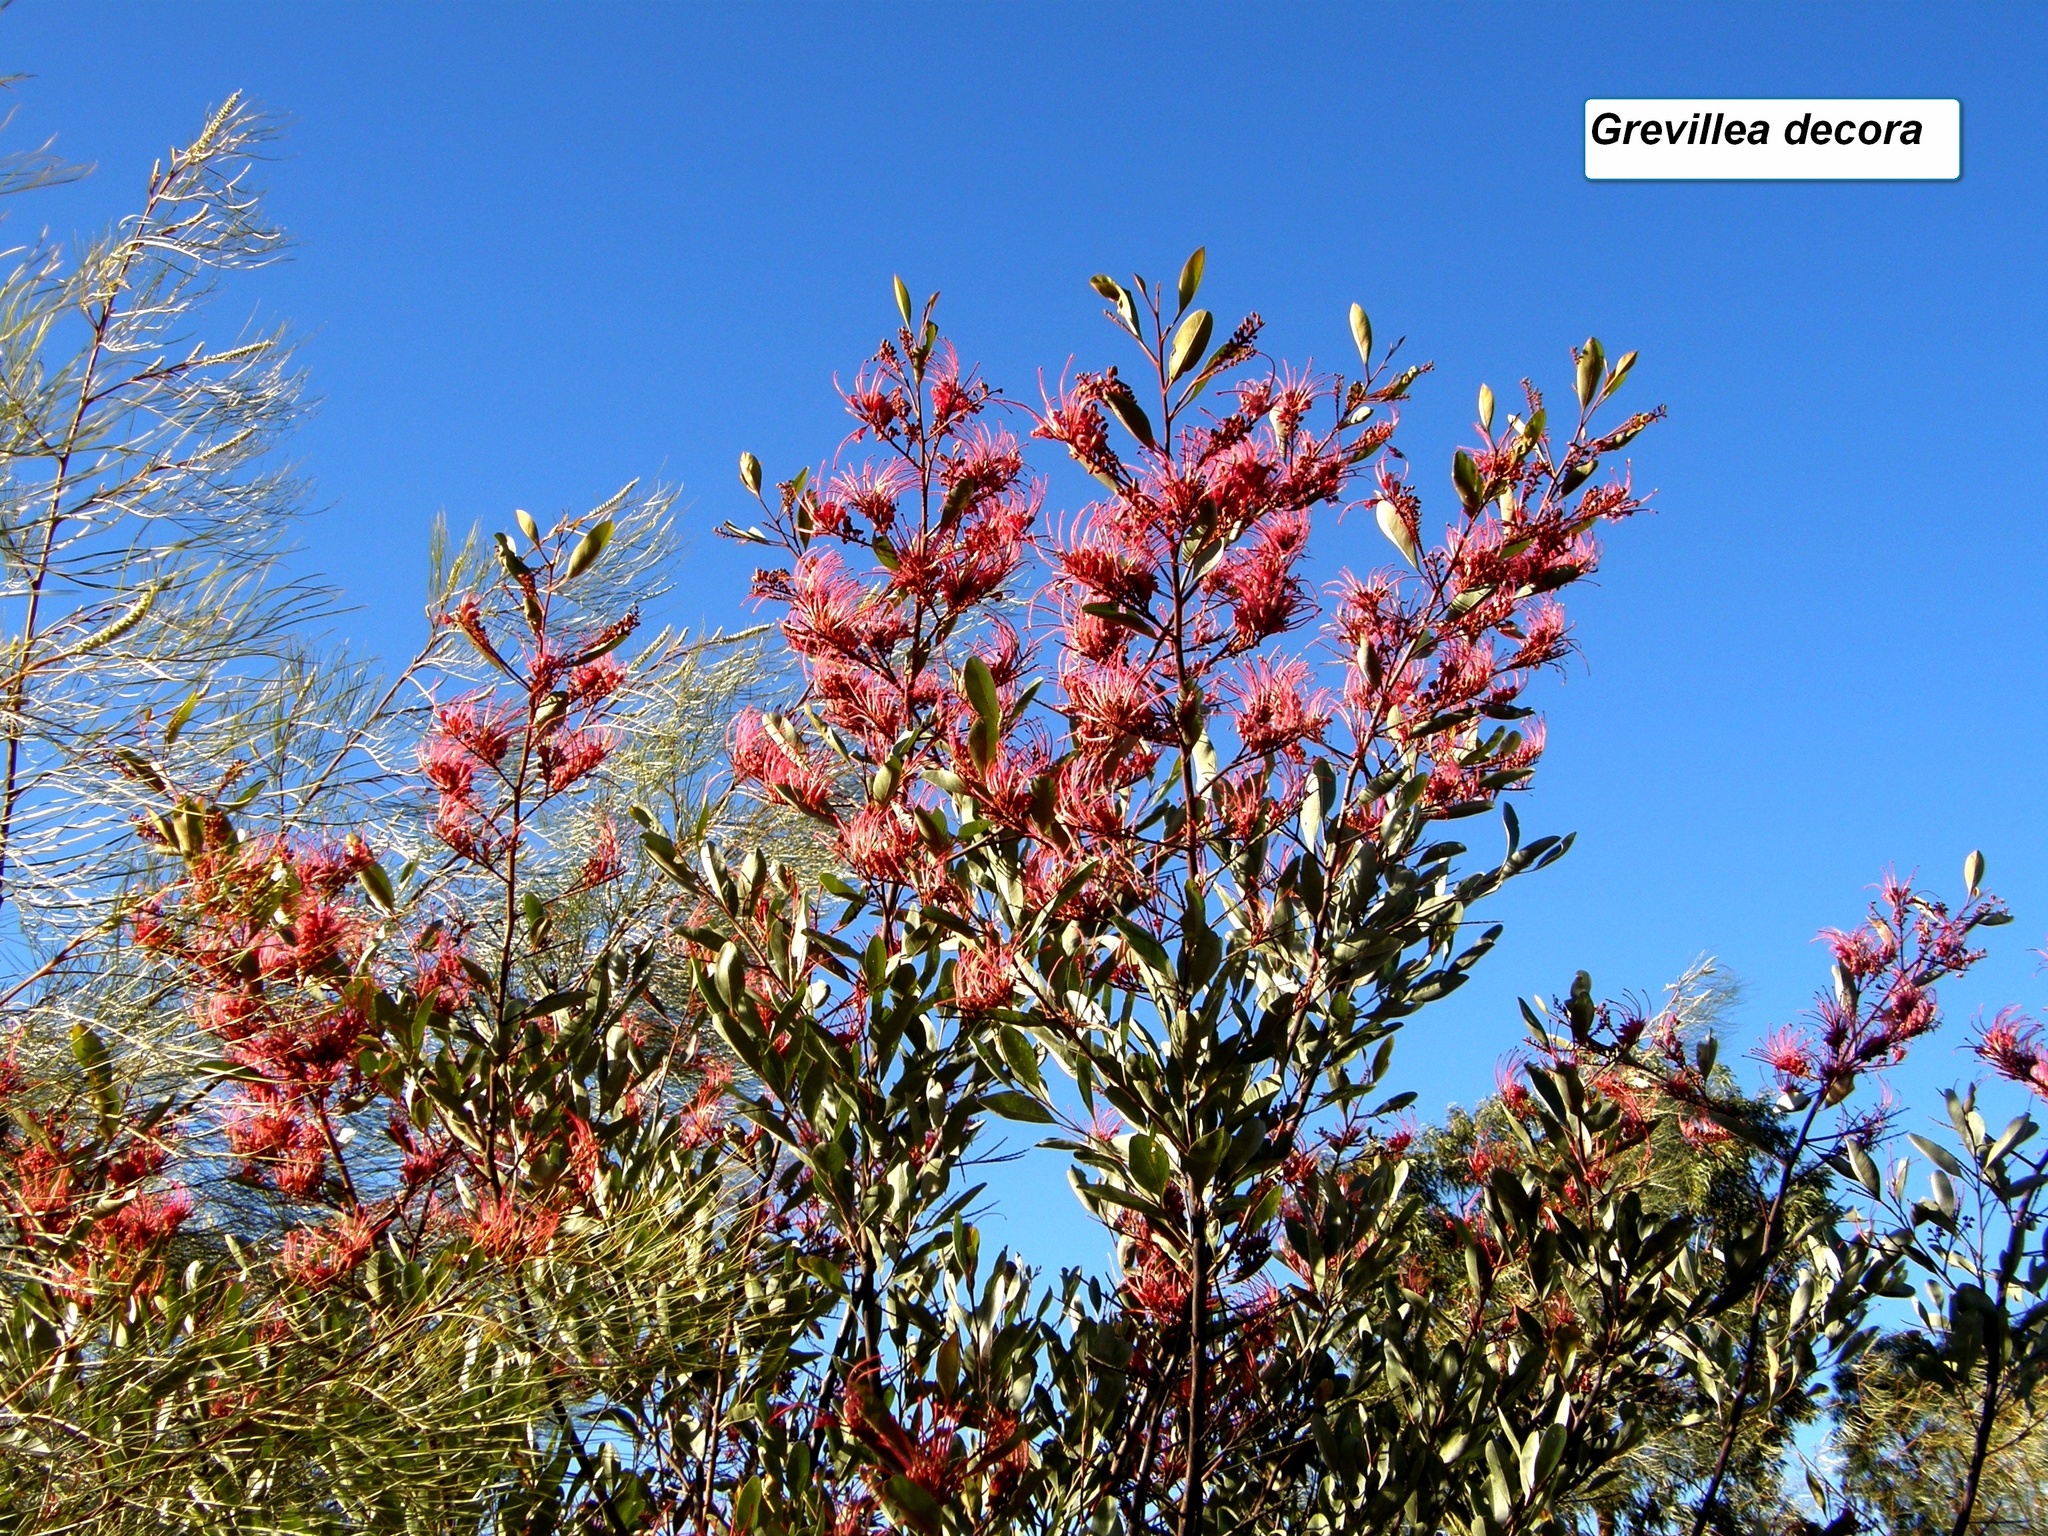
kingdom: Plantae
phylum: Tracheophyta
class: Magnoliopsida
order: Proteales
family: Proteaceae
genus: Grevillea
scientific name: Grevillea decora
